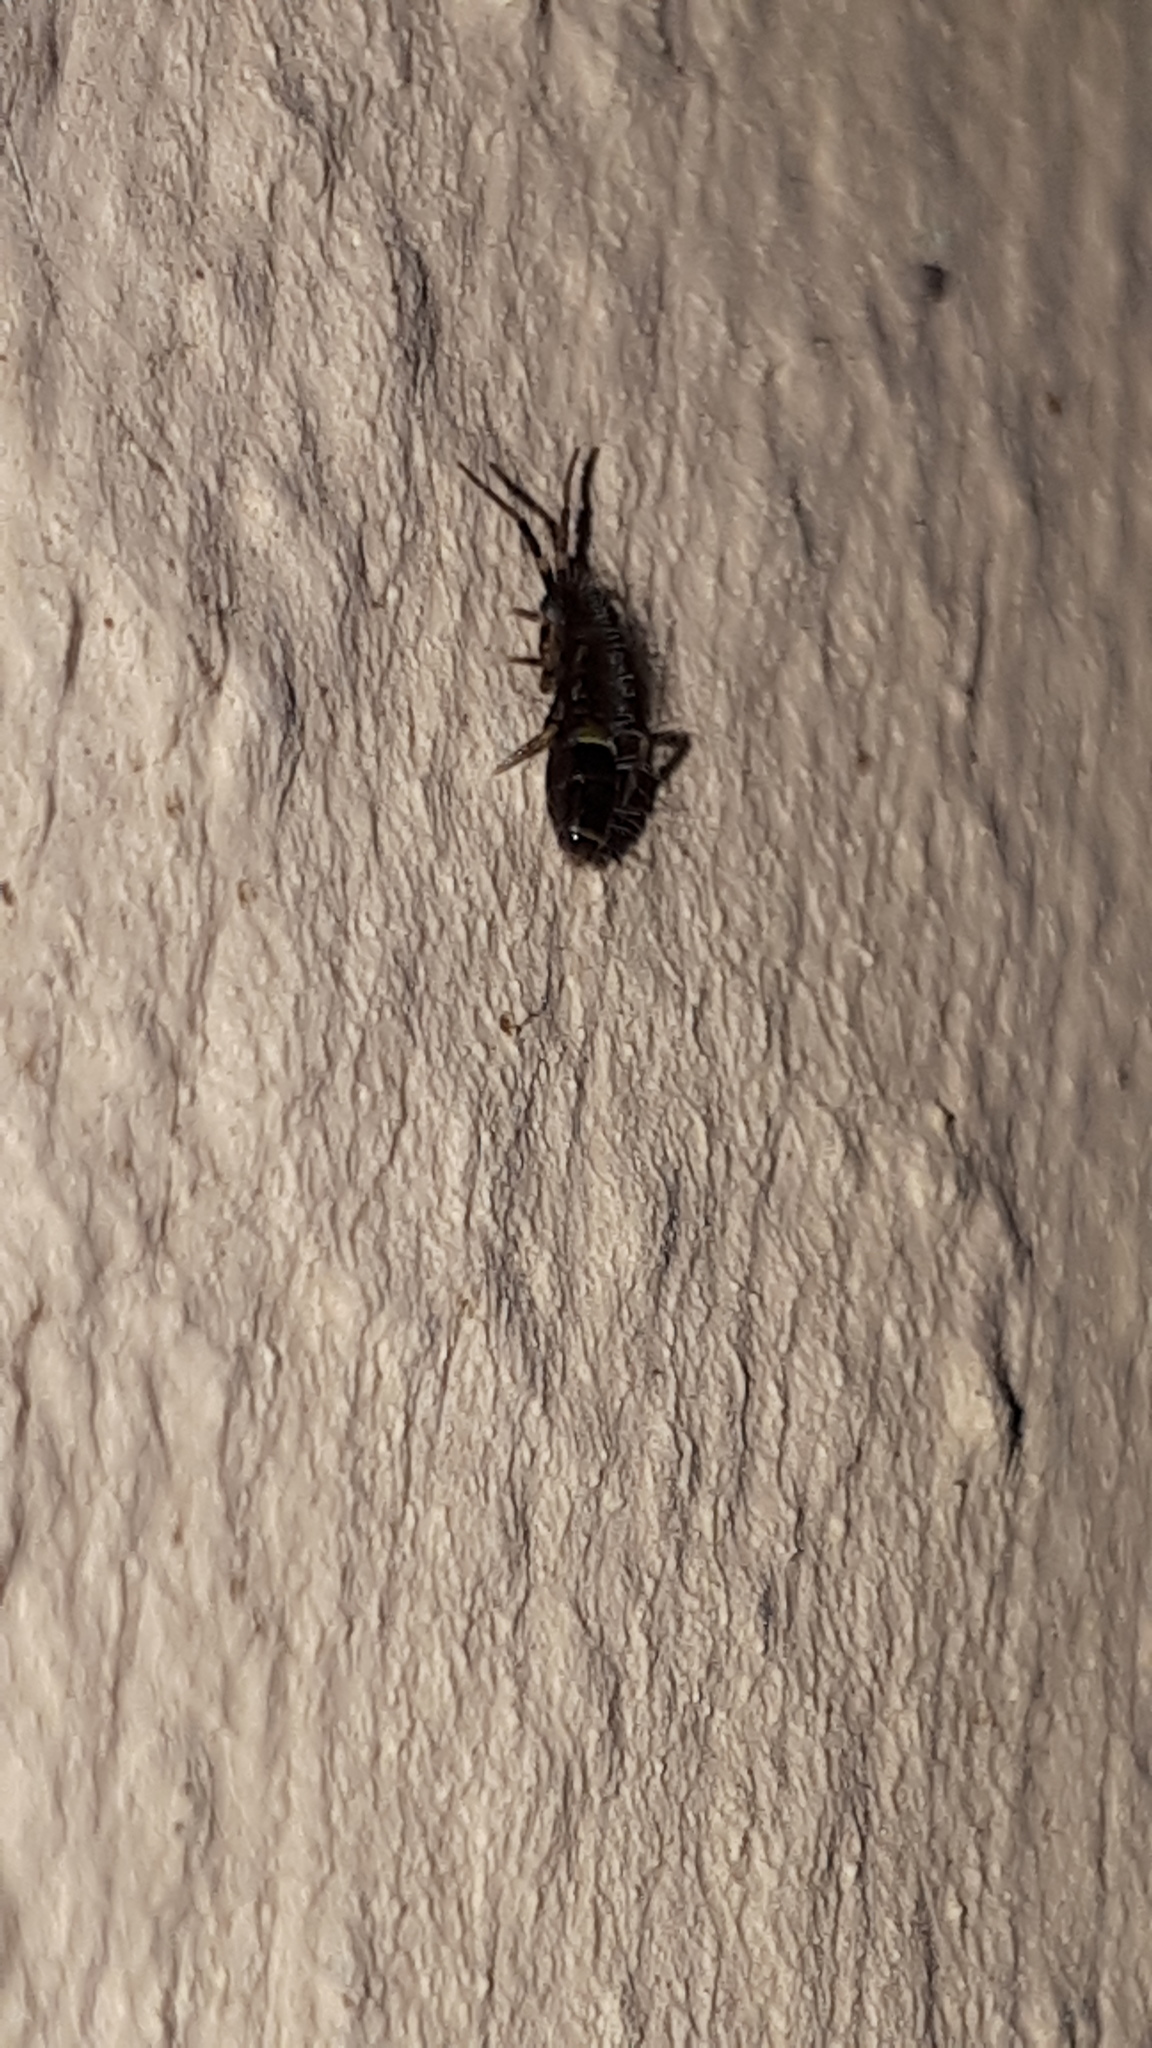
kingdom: Animalia
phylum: Arthropoda
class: Collembola
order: Entomobryomorpha
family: Orchesellidae
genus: Orchesella
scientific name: Orchesella cincta
